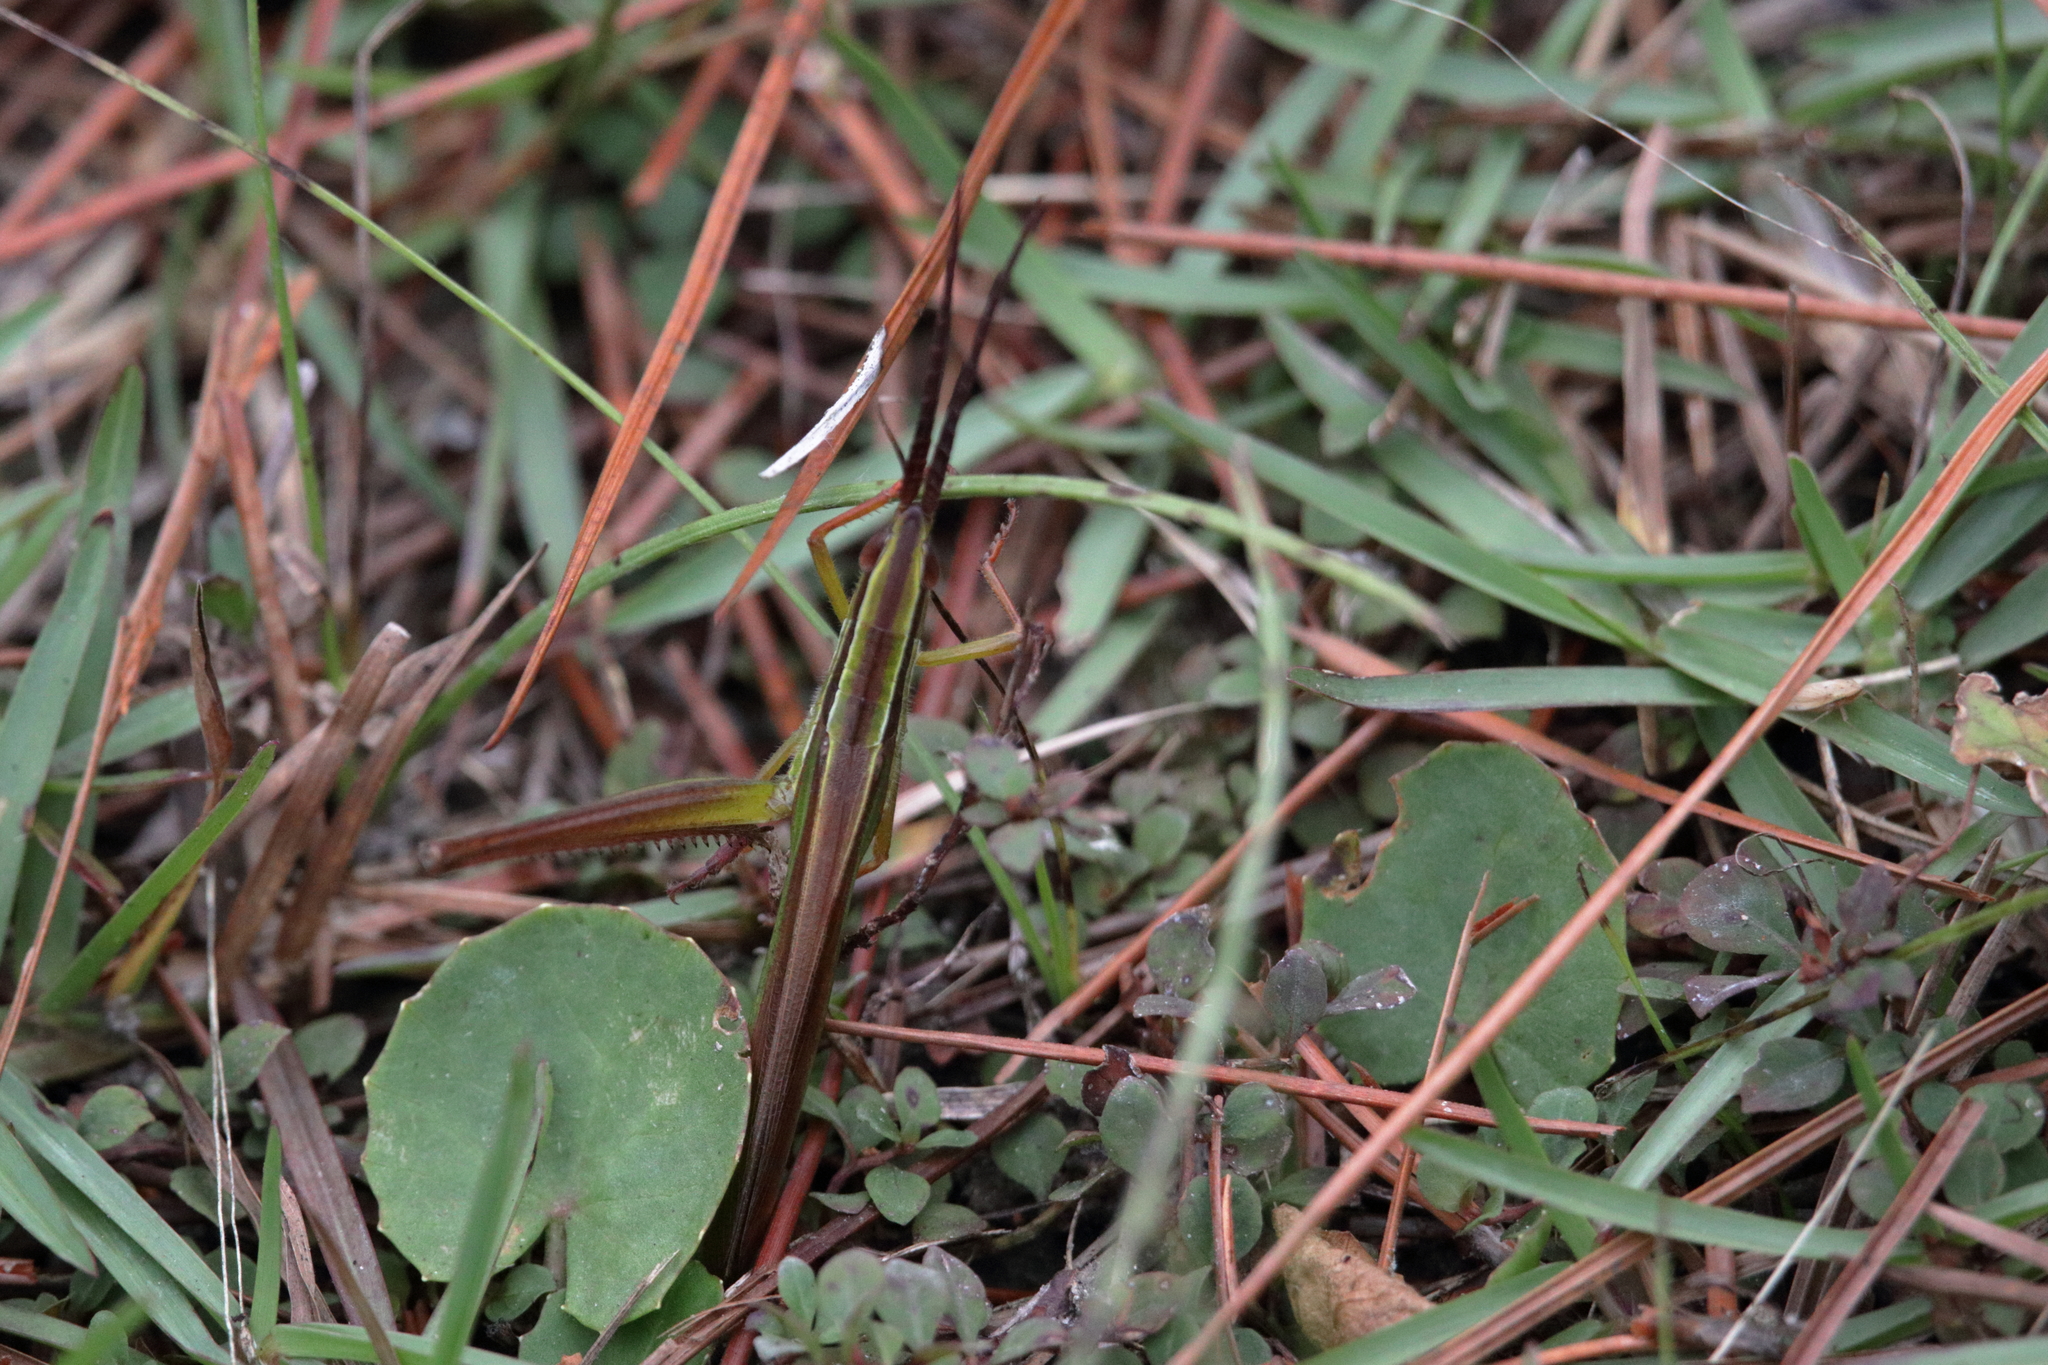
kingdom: Animalia
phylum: Arthropoda
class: Insecta
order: Orthoptera
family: Acrididae
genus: Mermiria
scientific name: Mermiria picta
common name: Lively mermiria grasshopper
